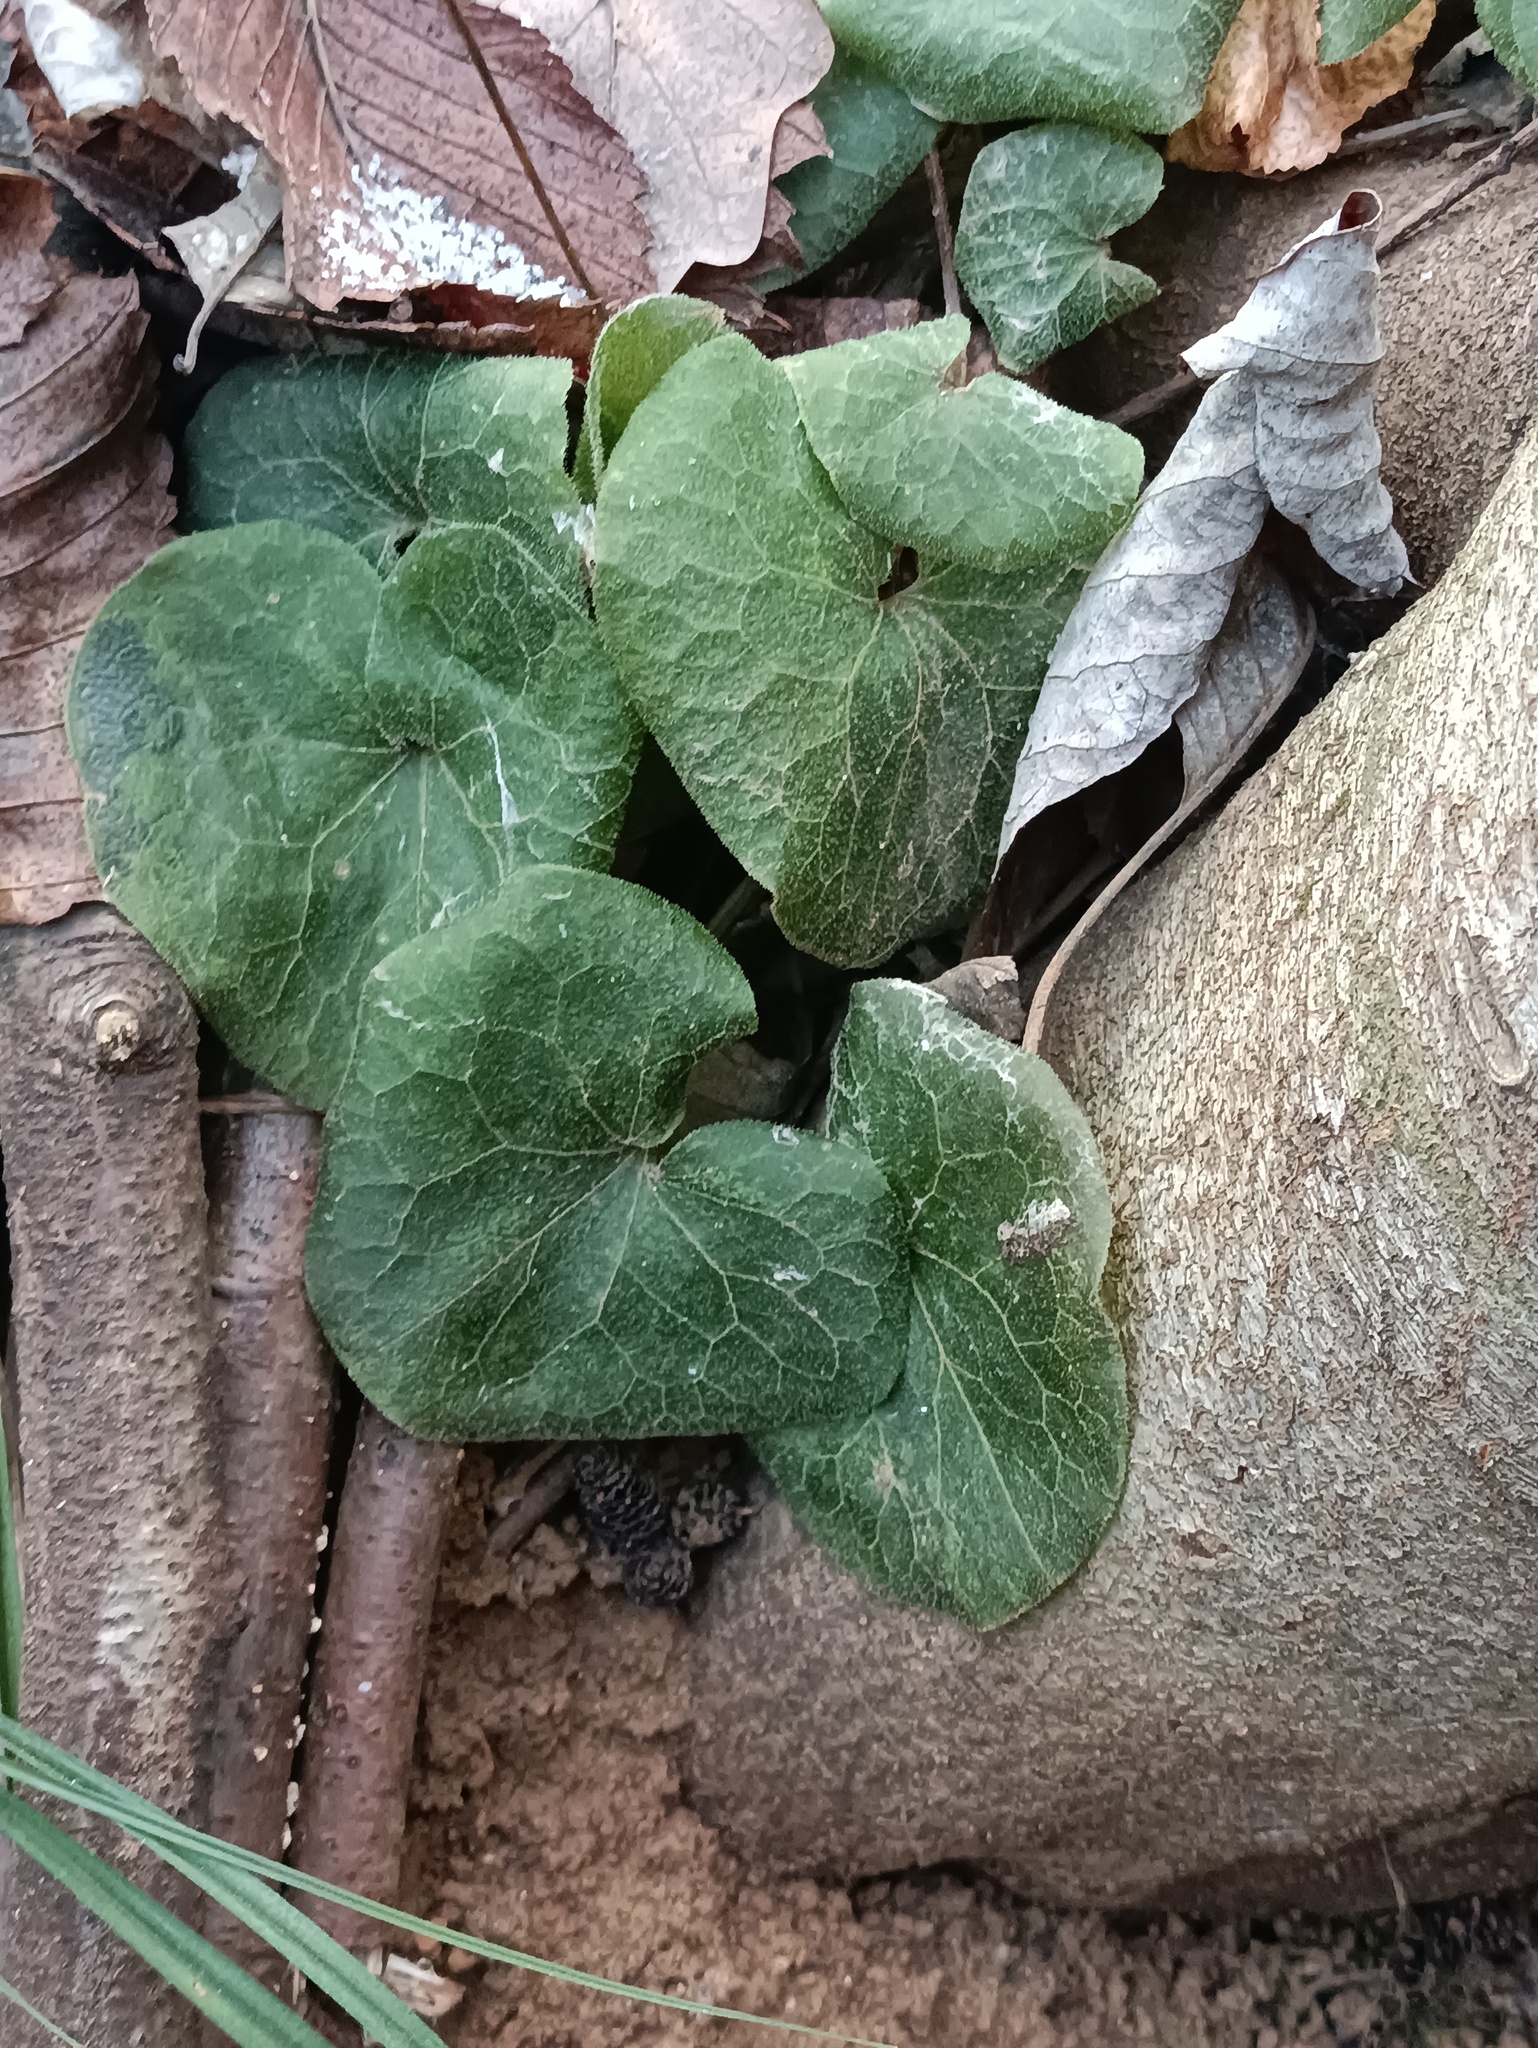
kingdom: Plantae
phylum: Tracheophyta
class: Magnoliopsida
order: Piperales
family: Aristolochiaceae
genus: Asarum
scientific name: Asarum europaeum
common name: Asarabacca
